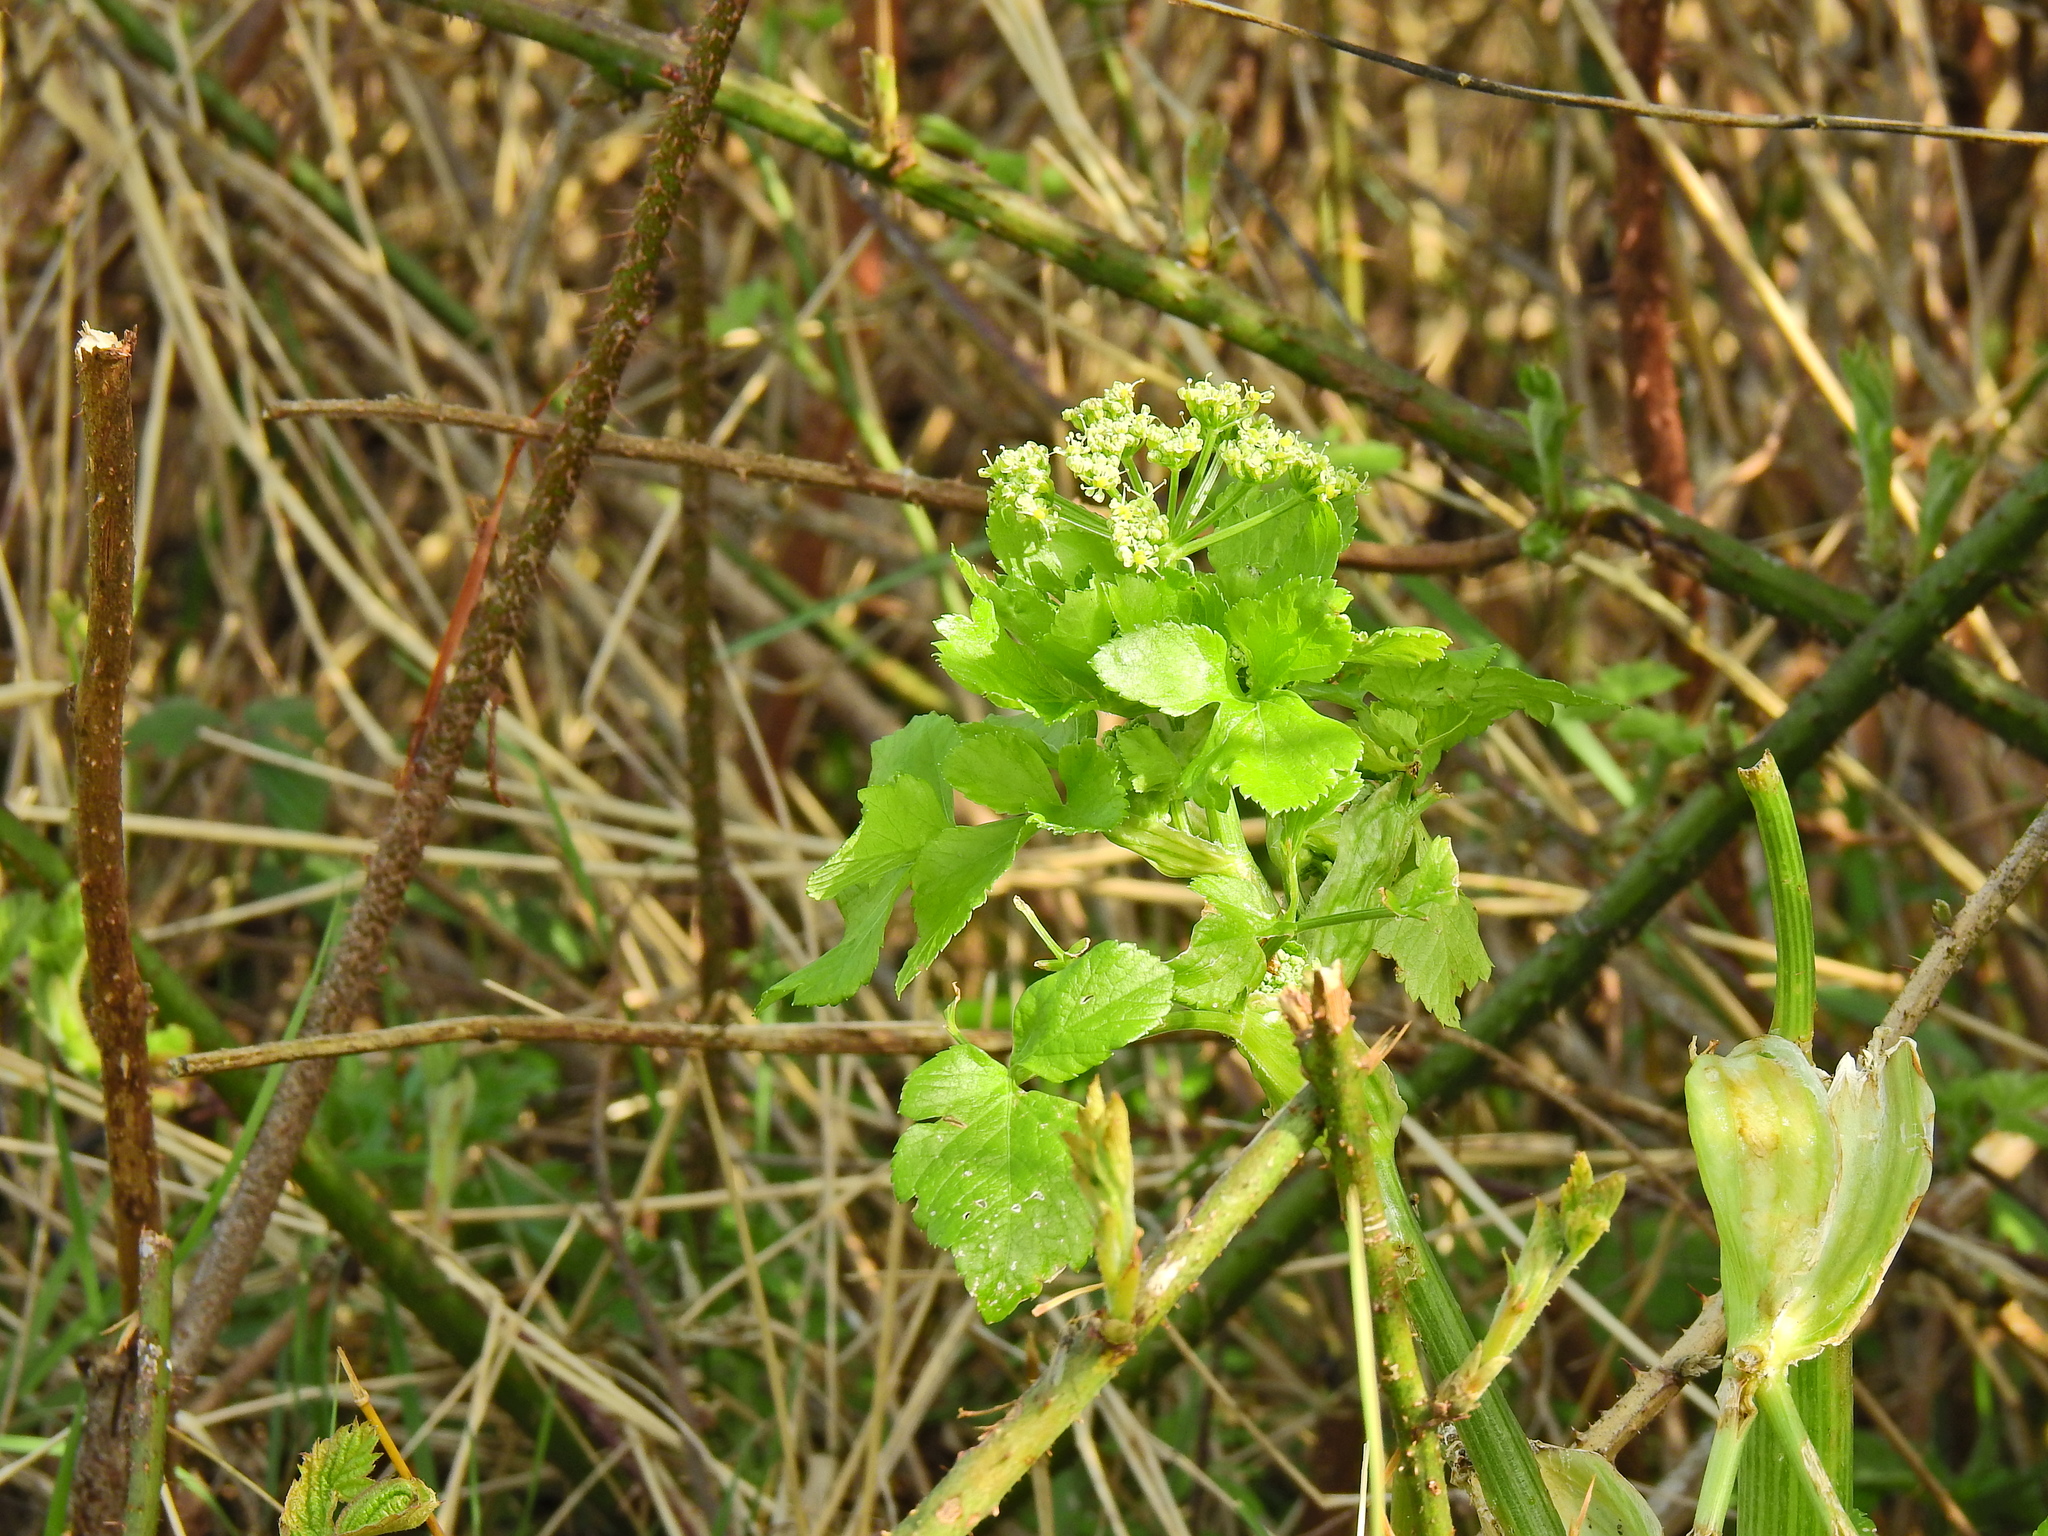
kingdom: Plantae
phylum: Tracheophyta
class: Magnoliopsida
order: Apiales
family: Apiaceae
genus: Smyrnium
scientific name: Smyrnium olusatrum
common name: Alexanders
